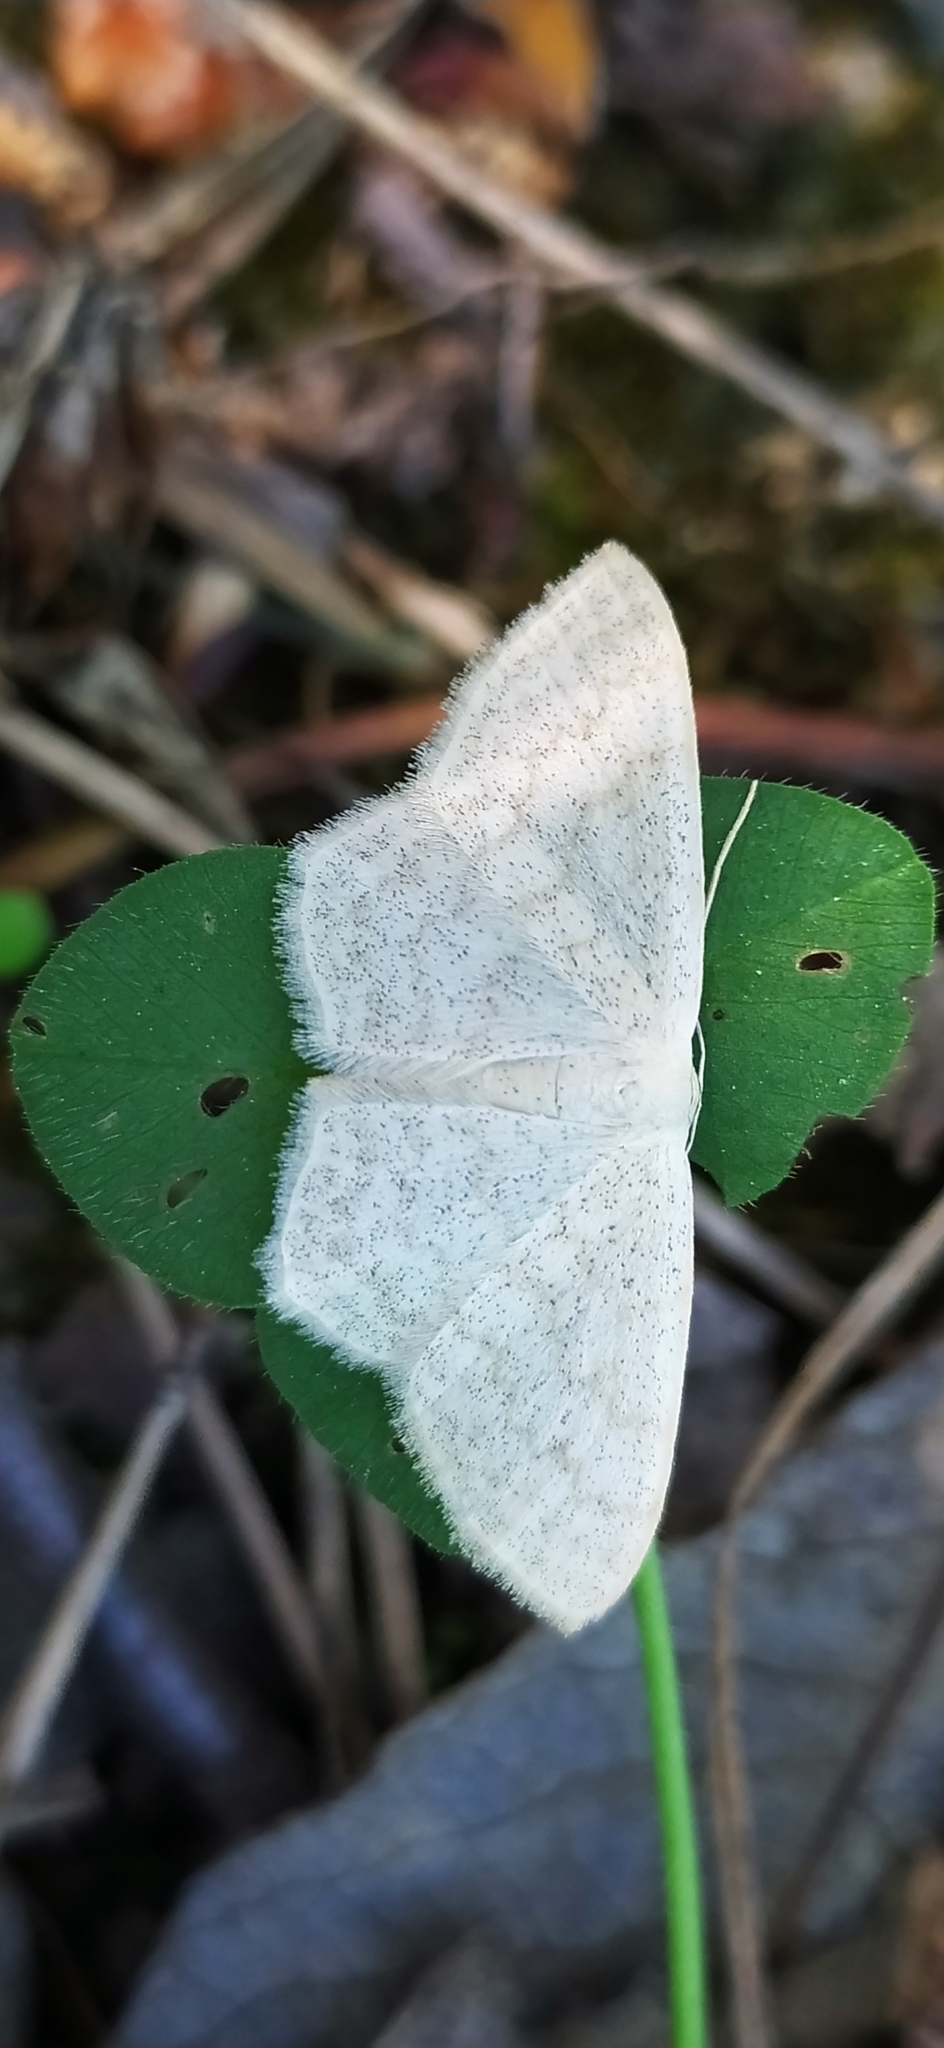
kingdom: Animalia
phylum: Arthropoda
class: Insecta
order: Lepidoptera
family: Geometridae
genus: Scopula
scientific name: Scopula floslactata
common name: Cream wave
